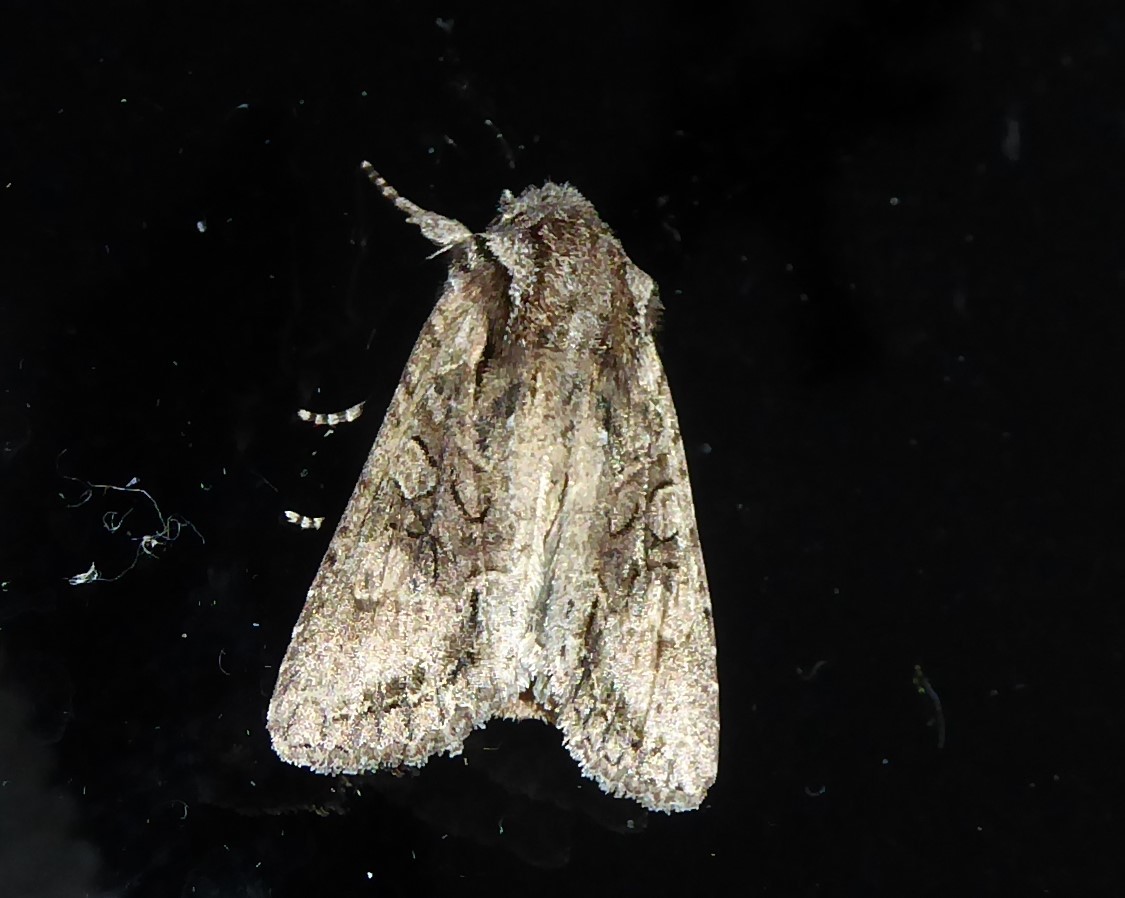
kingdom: Animalia
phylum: Arthropoda
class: Insecta
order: Lepidoptera
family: Noctuidae
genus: Ichneutica
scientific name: Ichneutica mutans
